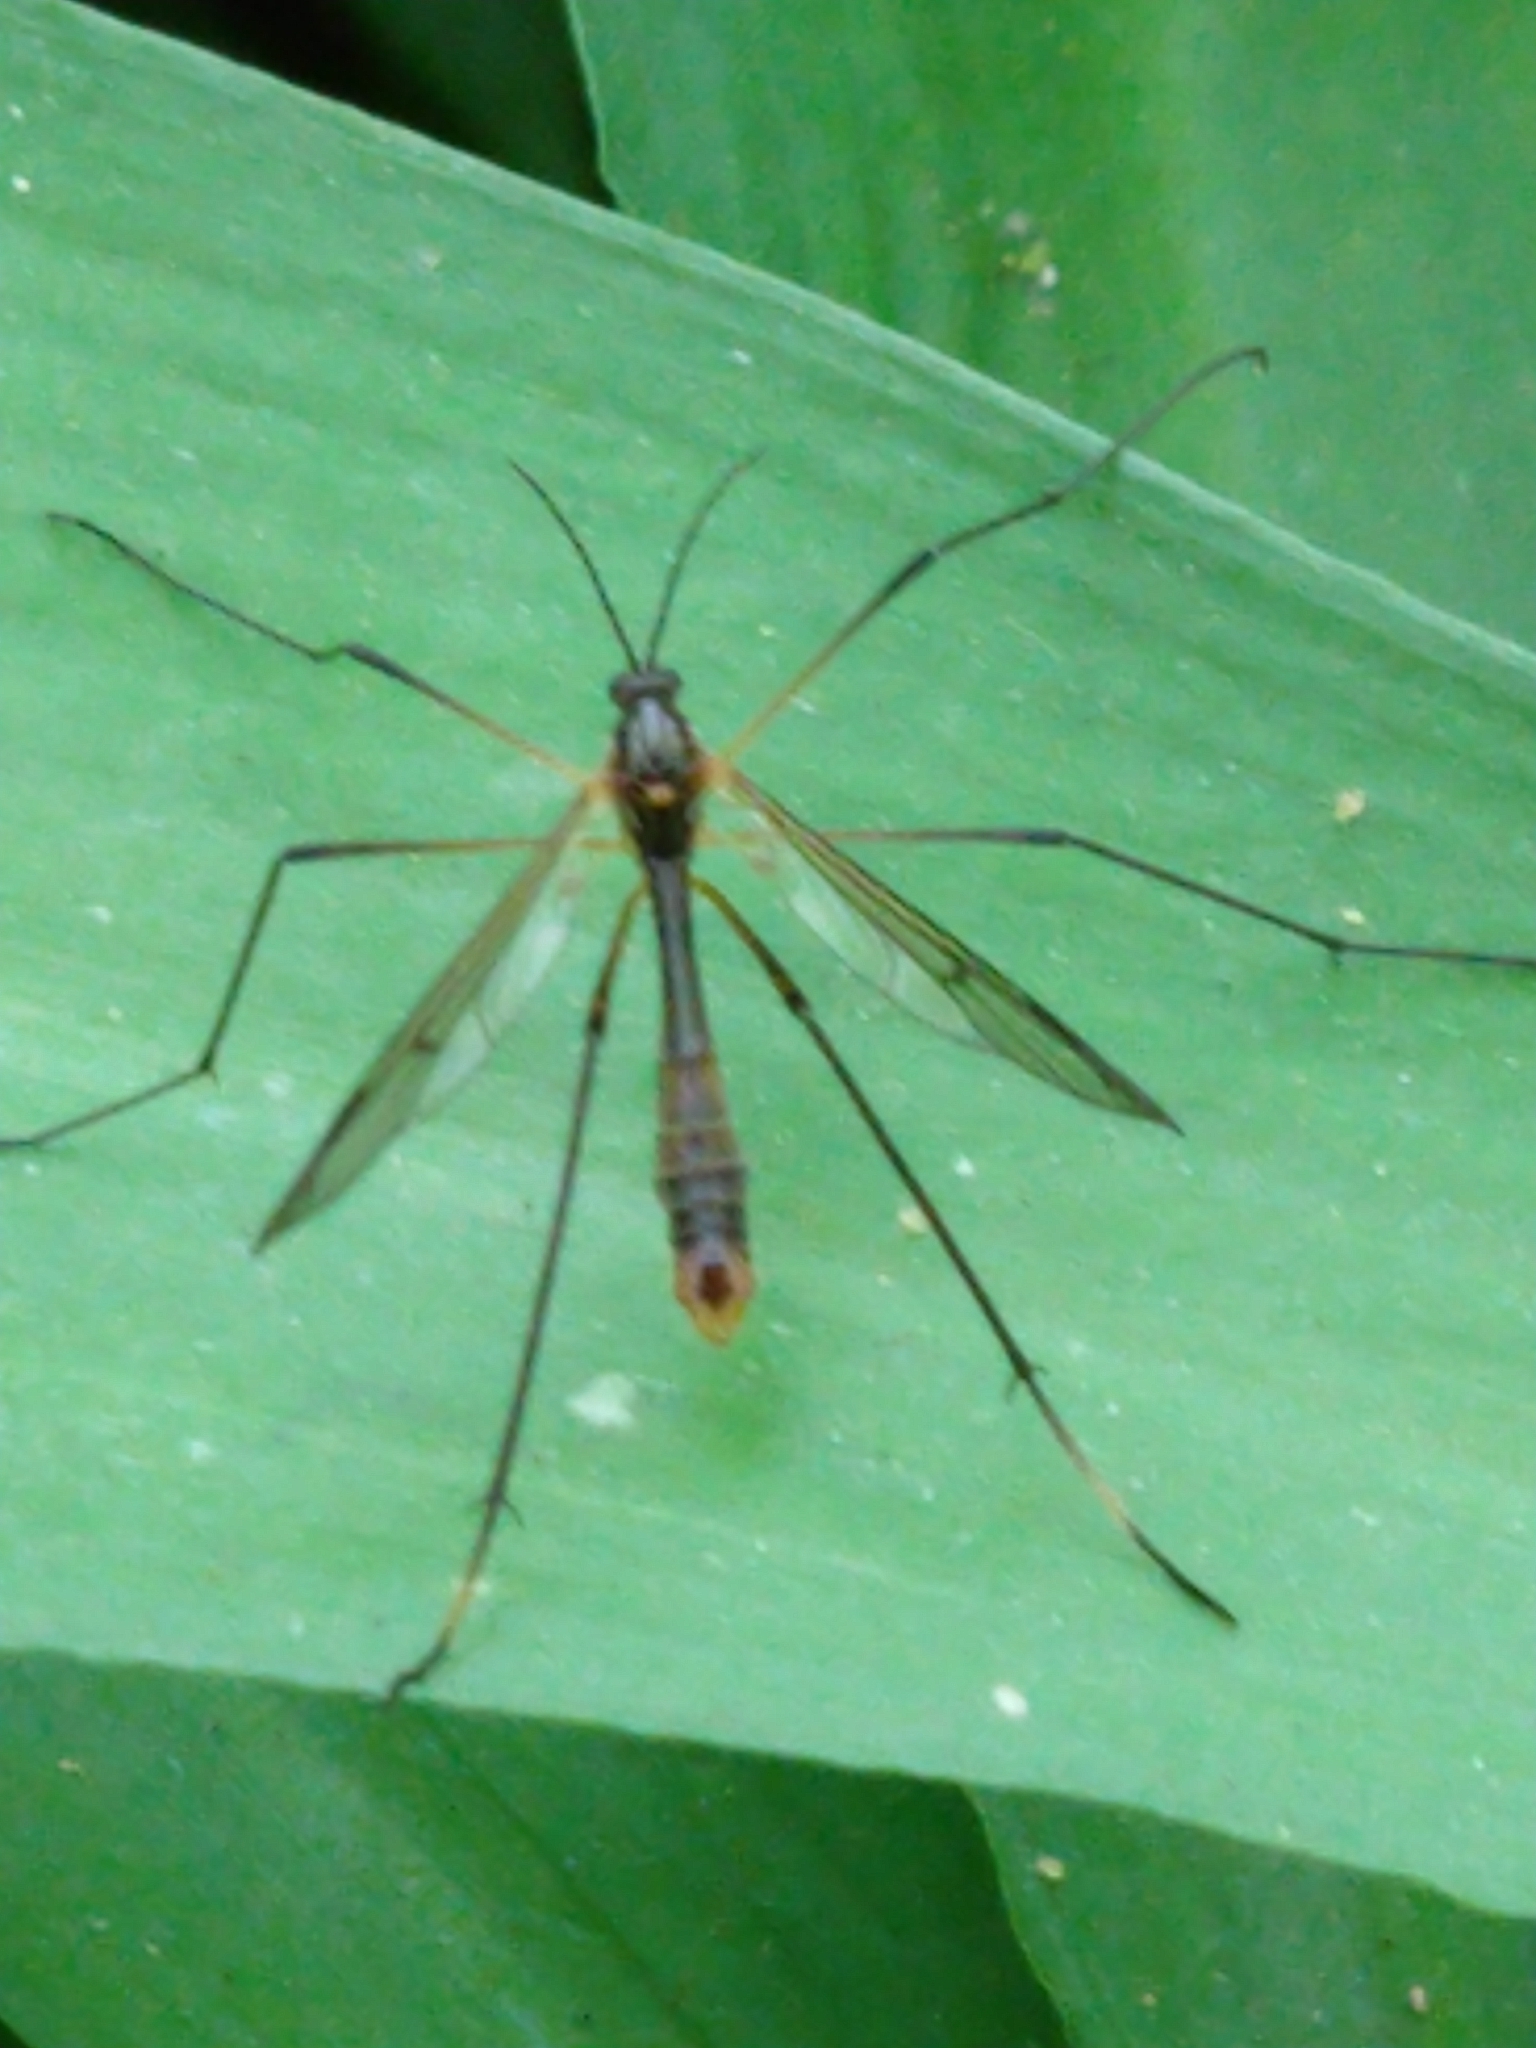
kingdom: Animalia
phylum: Arthropoda
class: Insecta
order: Diptera
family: Ptychopteridae
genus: Ptychoptera
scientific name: Ptychoptera albimanus
